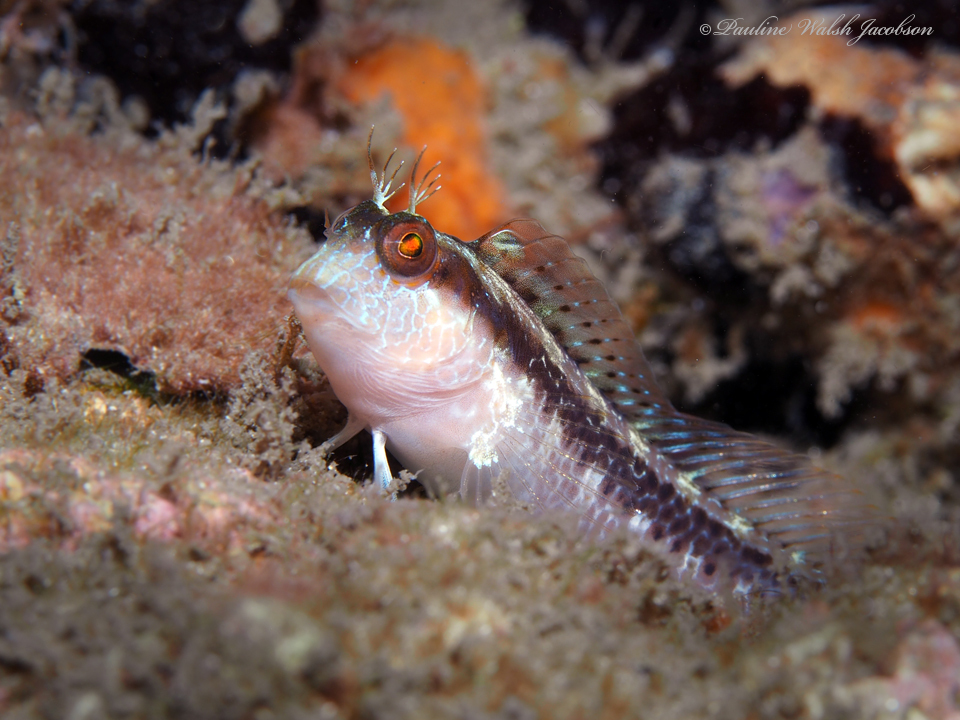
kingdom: Animalia
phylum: Chordata
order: Perciformes
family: Blenniidae
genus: Parablennius
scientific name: Parablennius marmoreus
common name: Seaweed blenny
